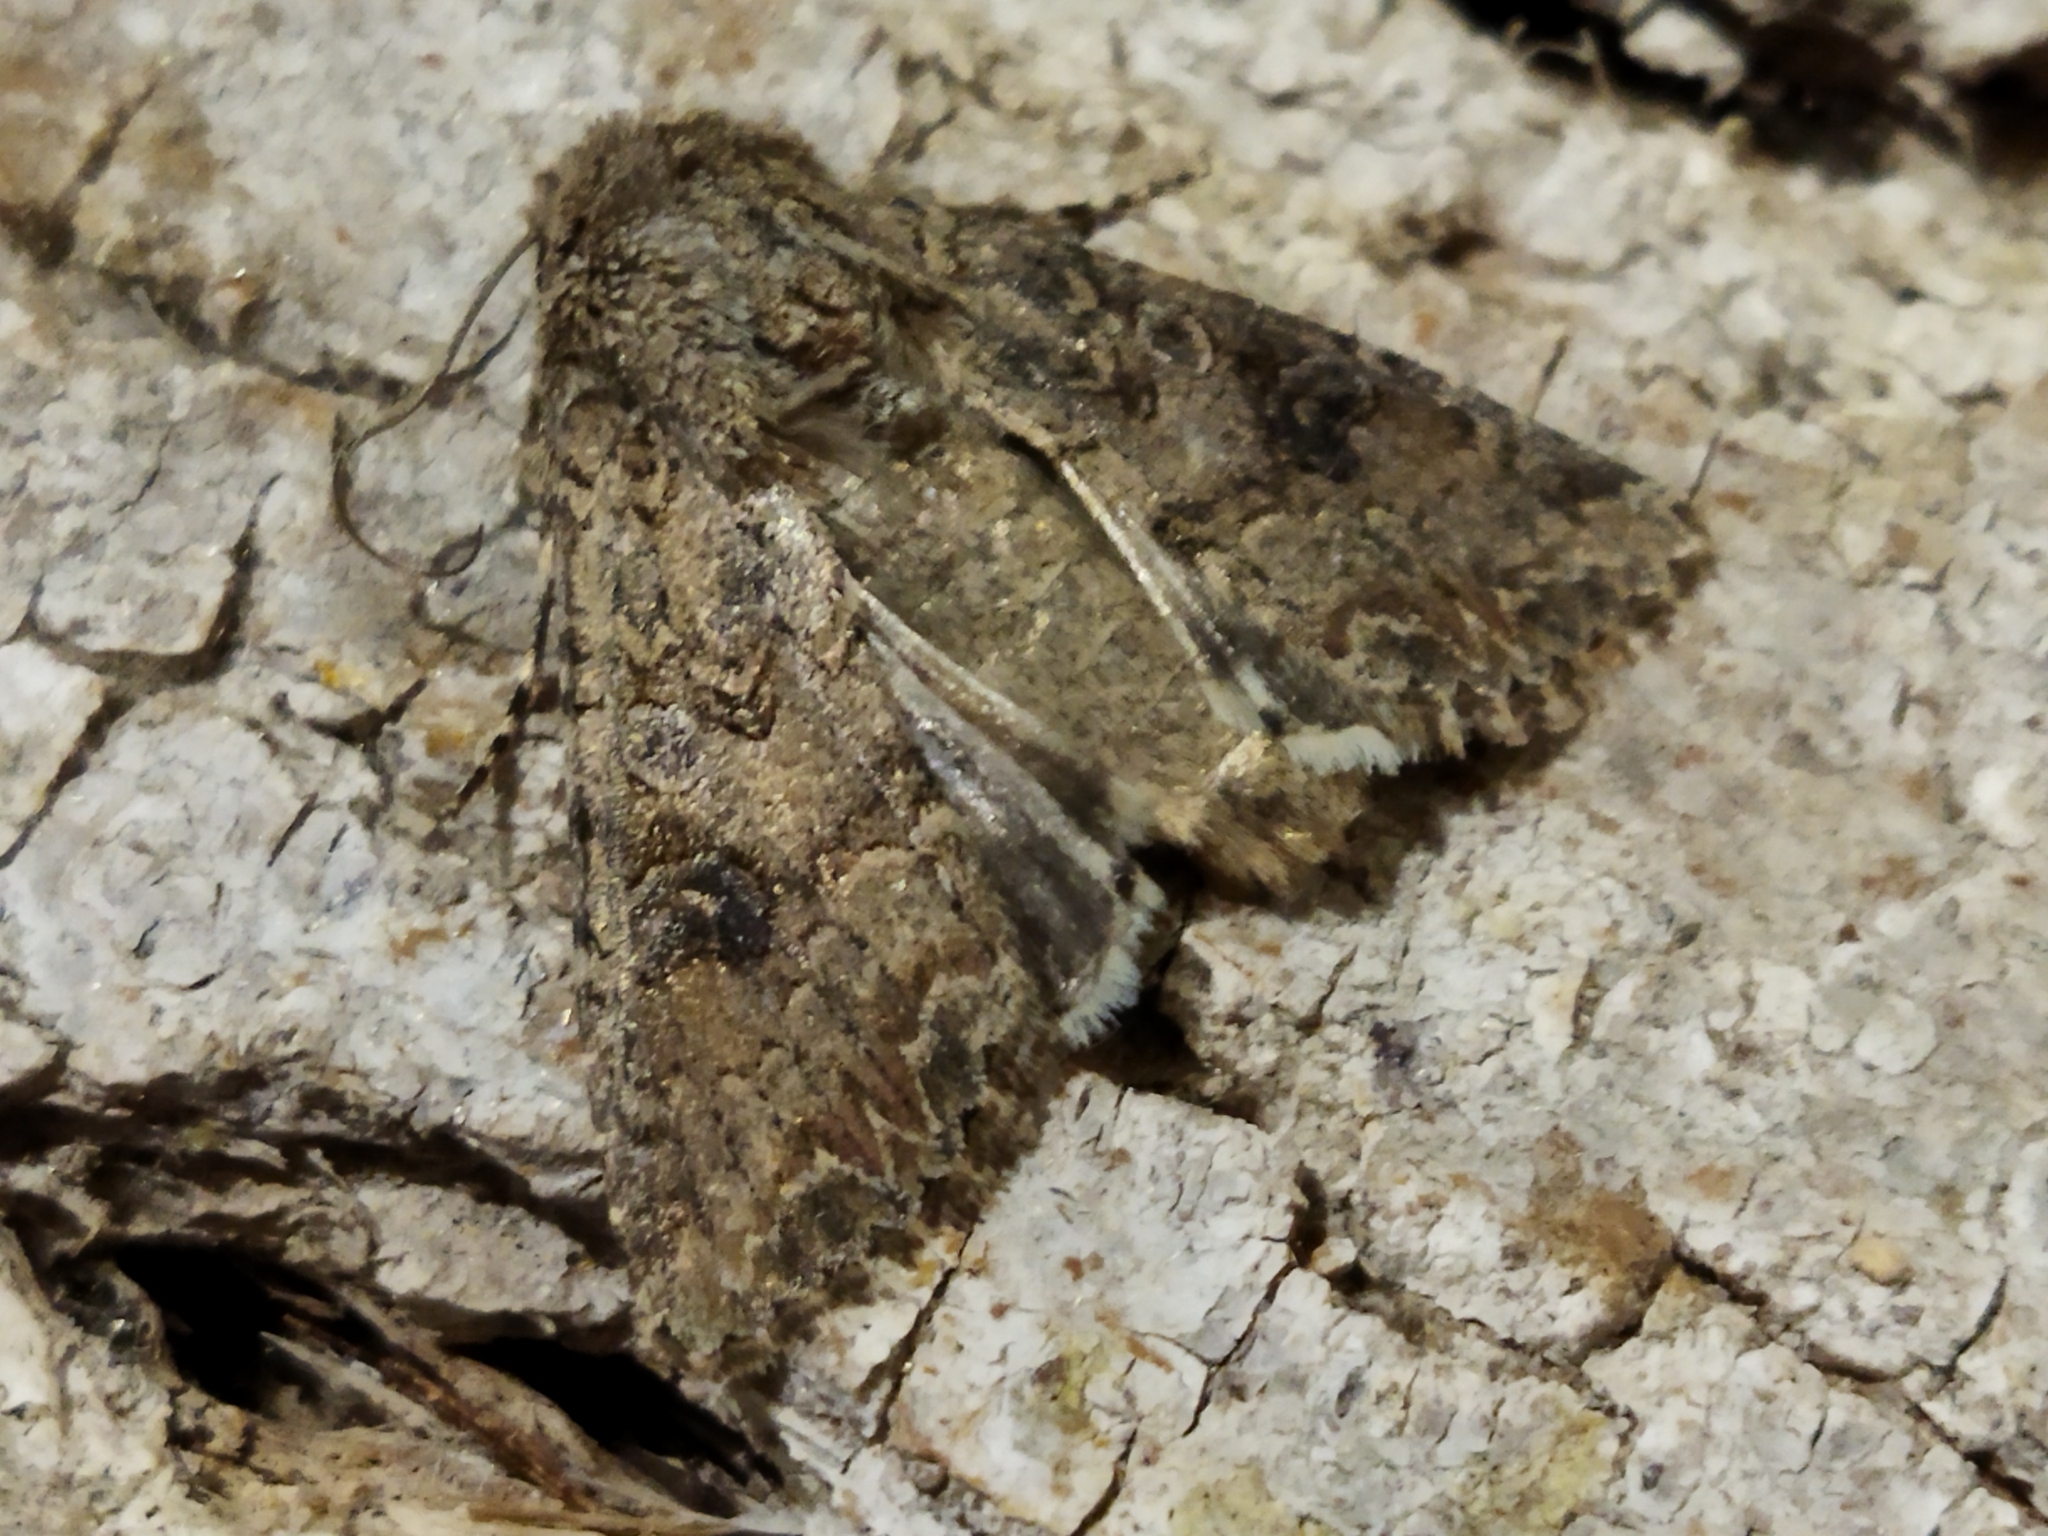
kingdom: Animalia
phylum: Arthropoda
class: Insecta
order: Lepidoptera
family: Noctuidae
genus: Anarta
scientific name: Anarta trifolii
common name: Clover cutworm moth
